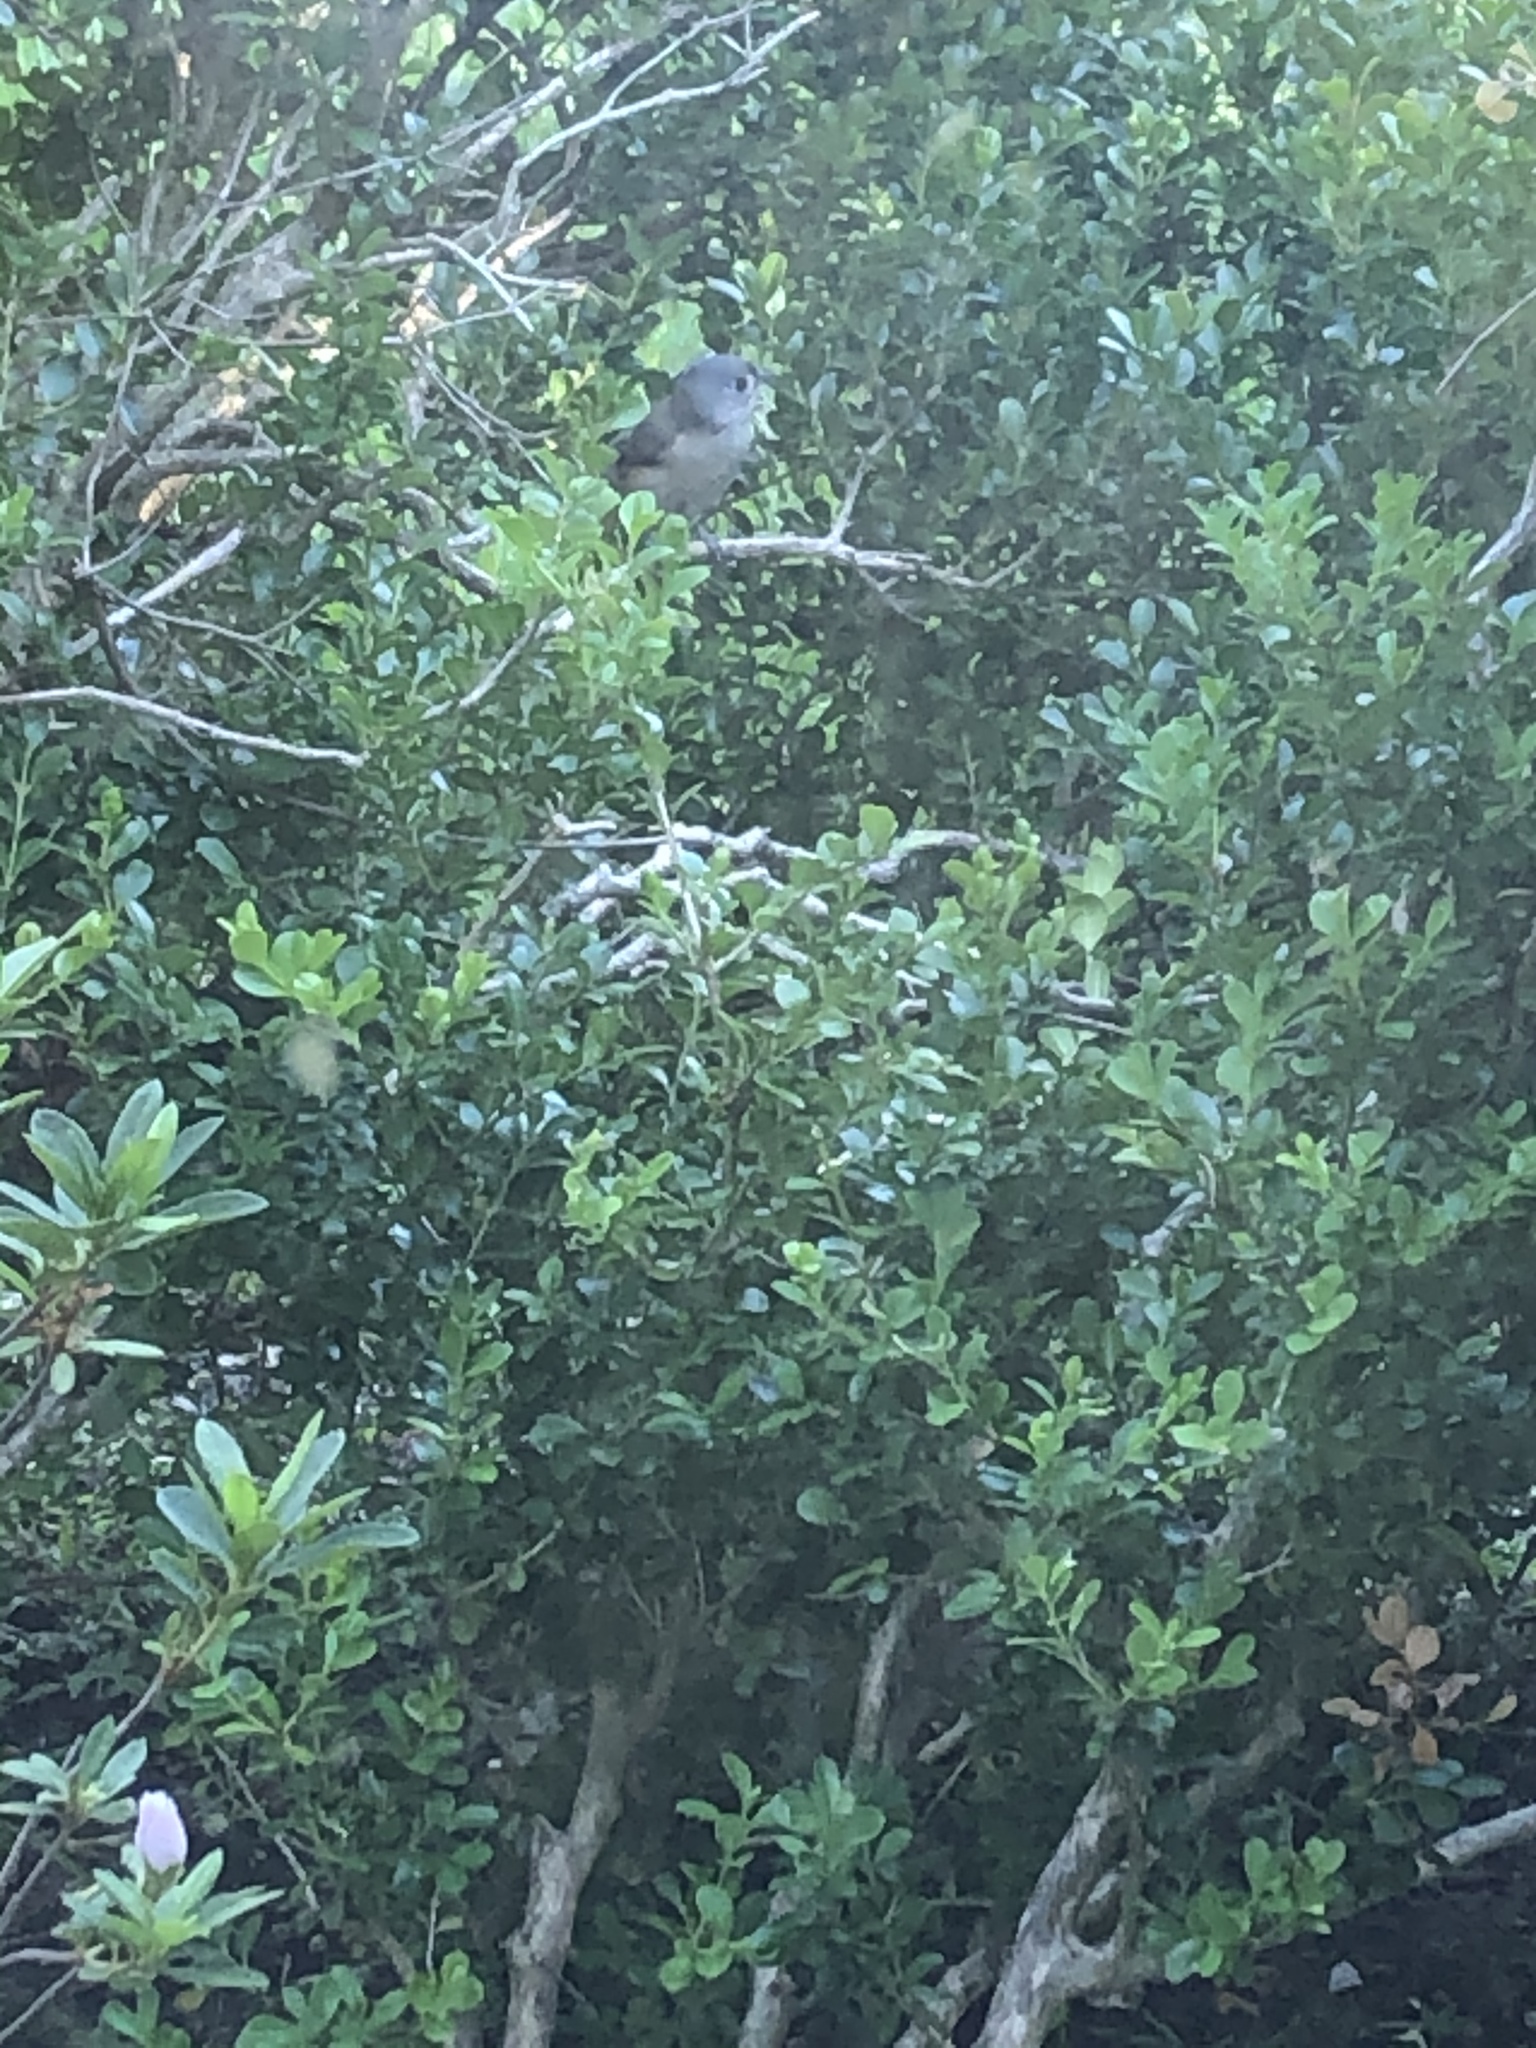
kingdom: Animalia
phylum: Chordata
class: Aves
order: Passeriformes
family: Paridae
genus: Baeolophus
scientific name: Baeolophus bicolor
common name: Tufted titmouse
